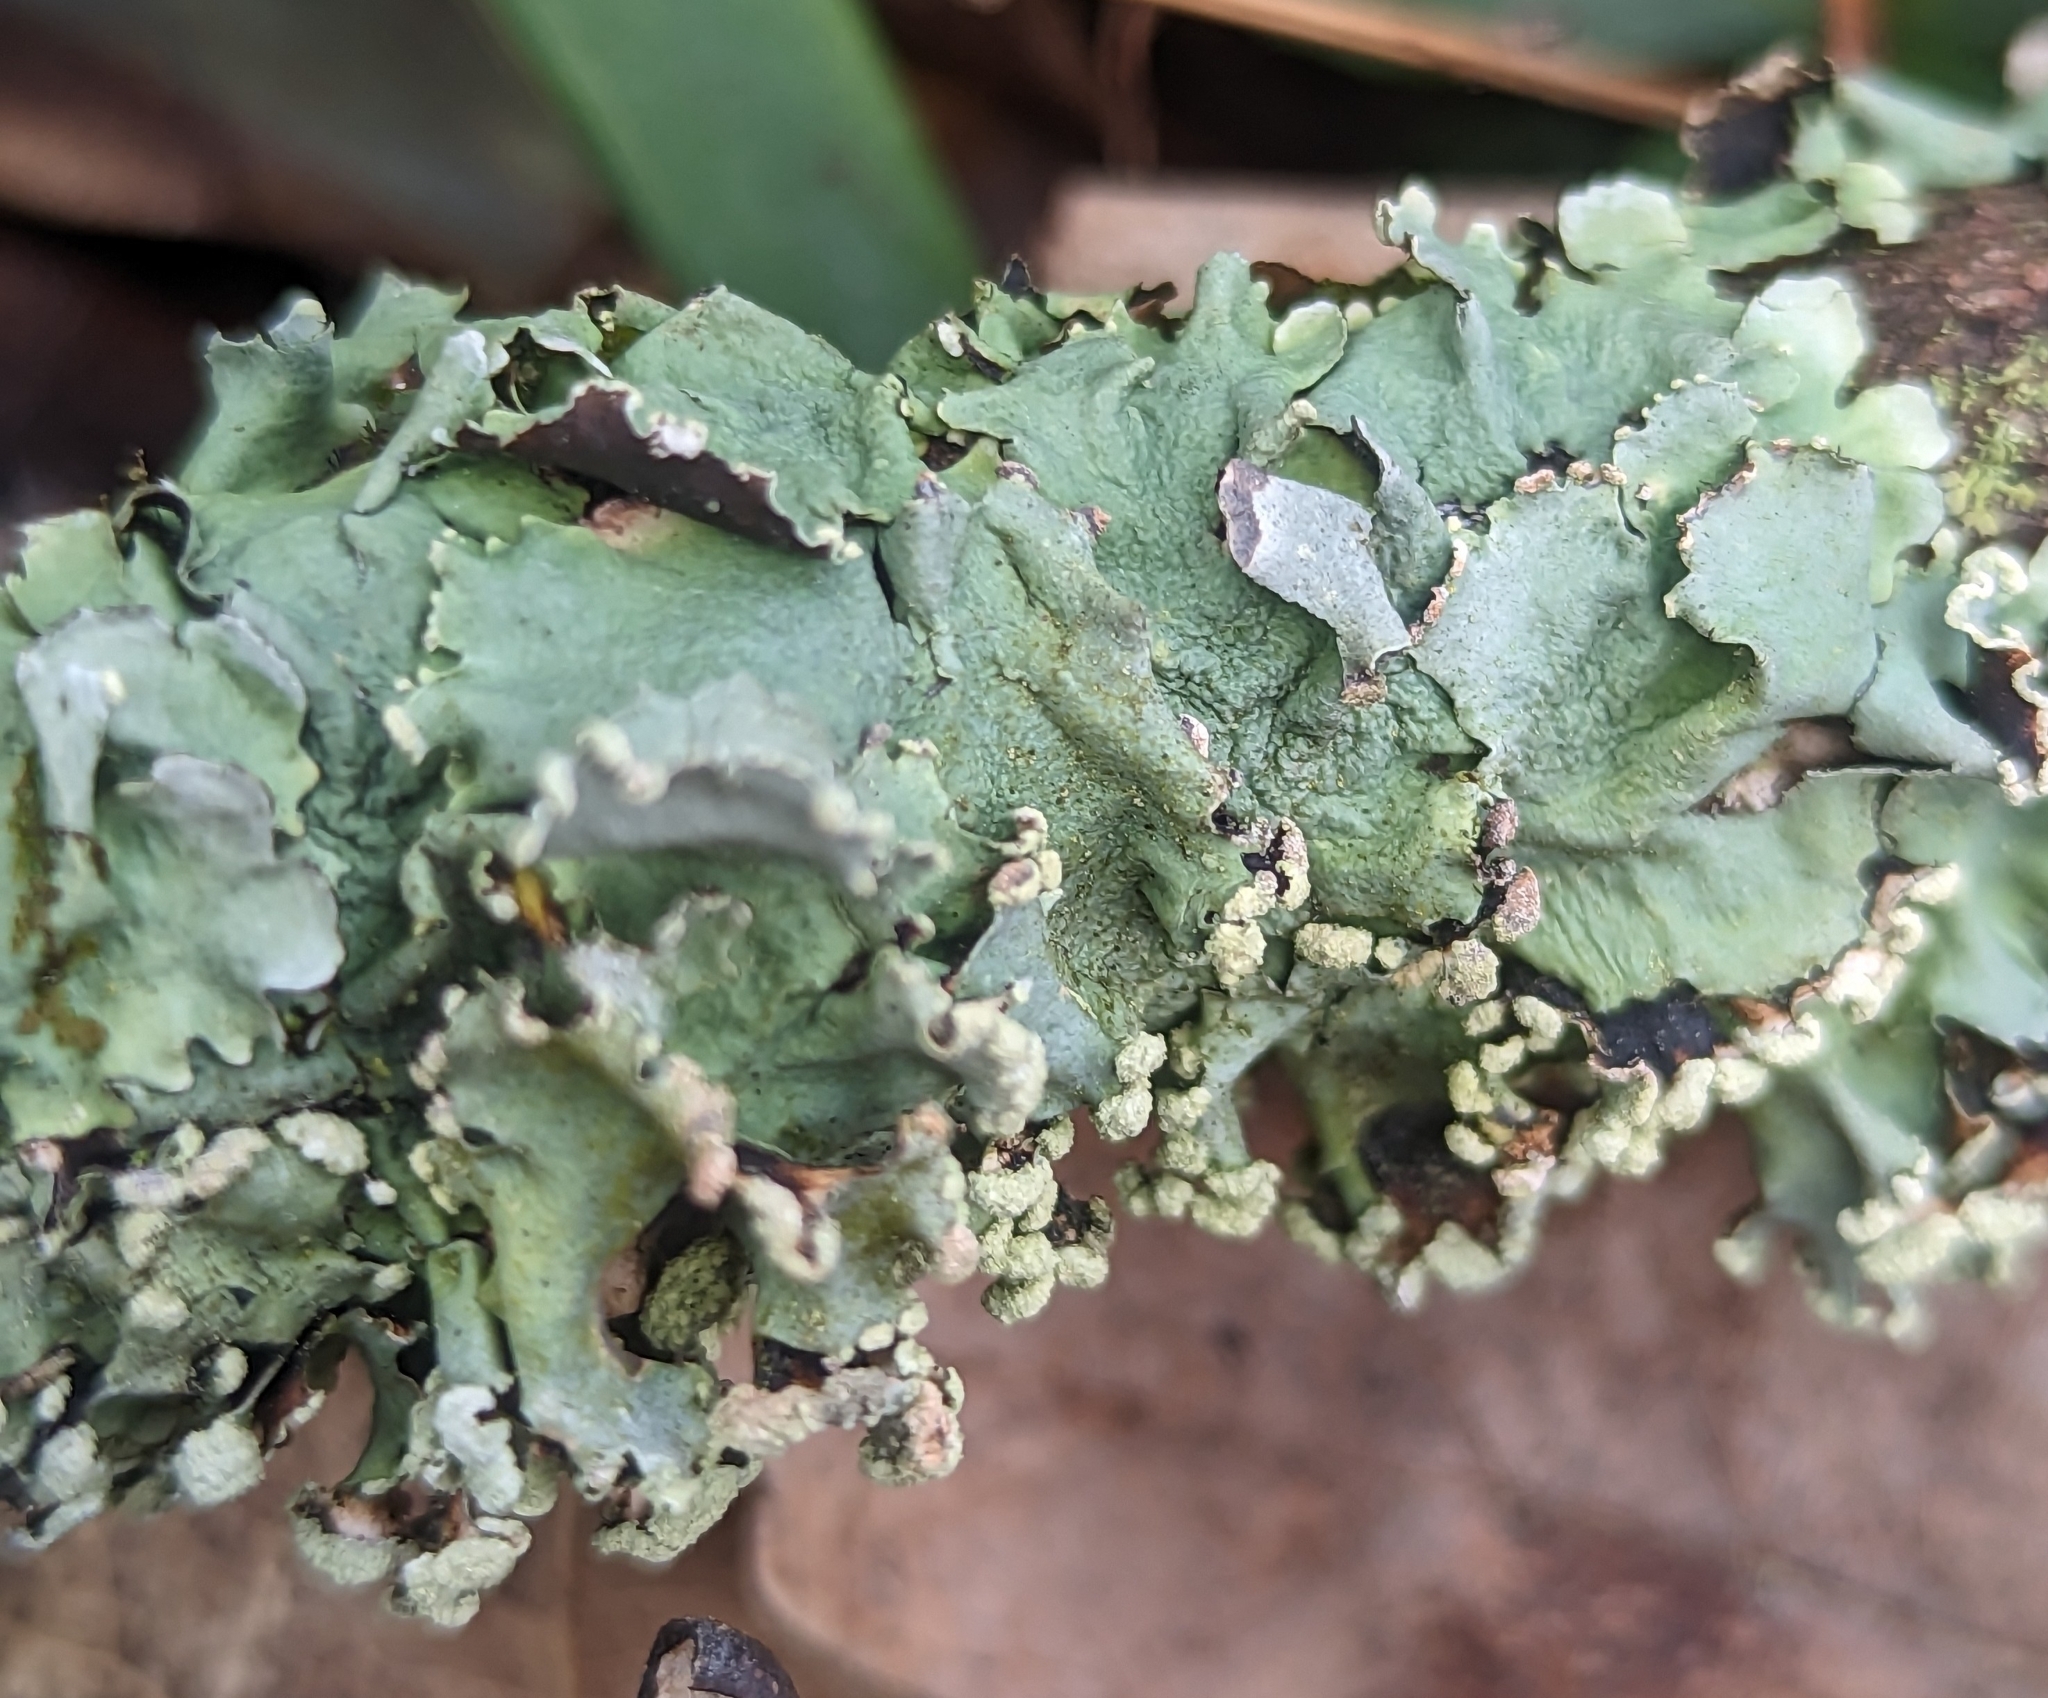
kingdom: Fungi
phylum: Ascomycota
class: Lecanoromycetes
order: Lecanorales
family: Parmeliaceae
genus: Parmotrema
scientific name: Parmotrema hypotropum
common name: Powdered ruffle lichen
